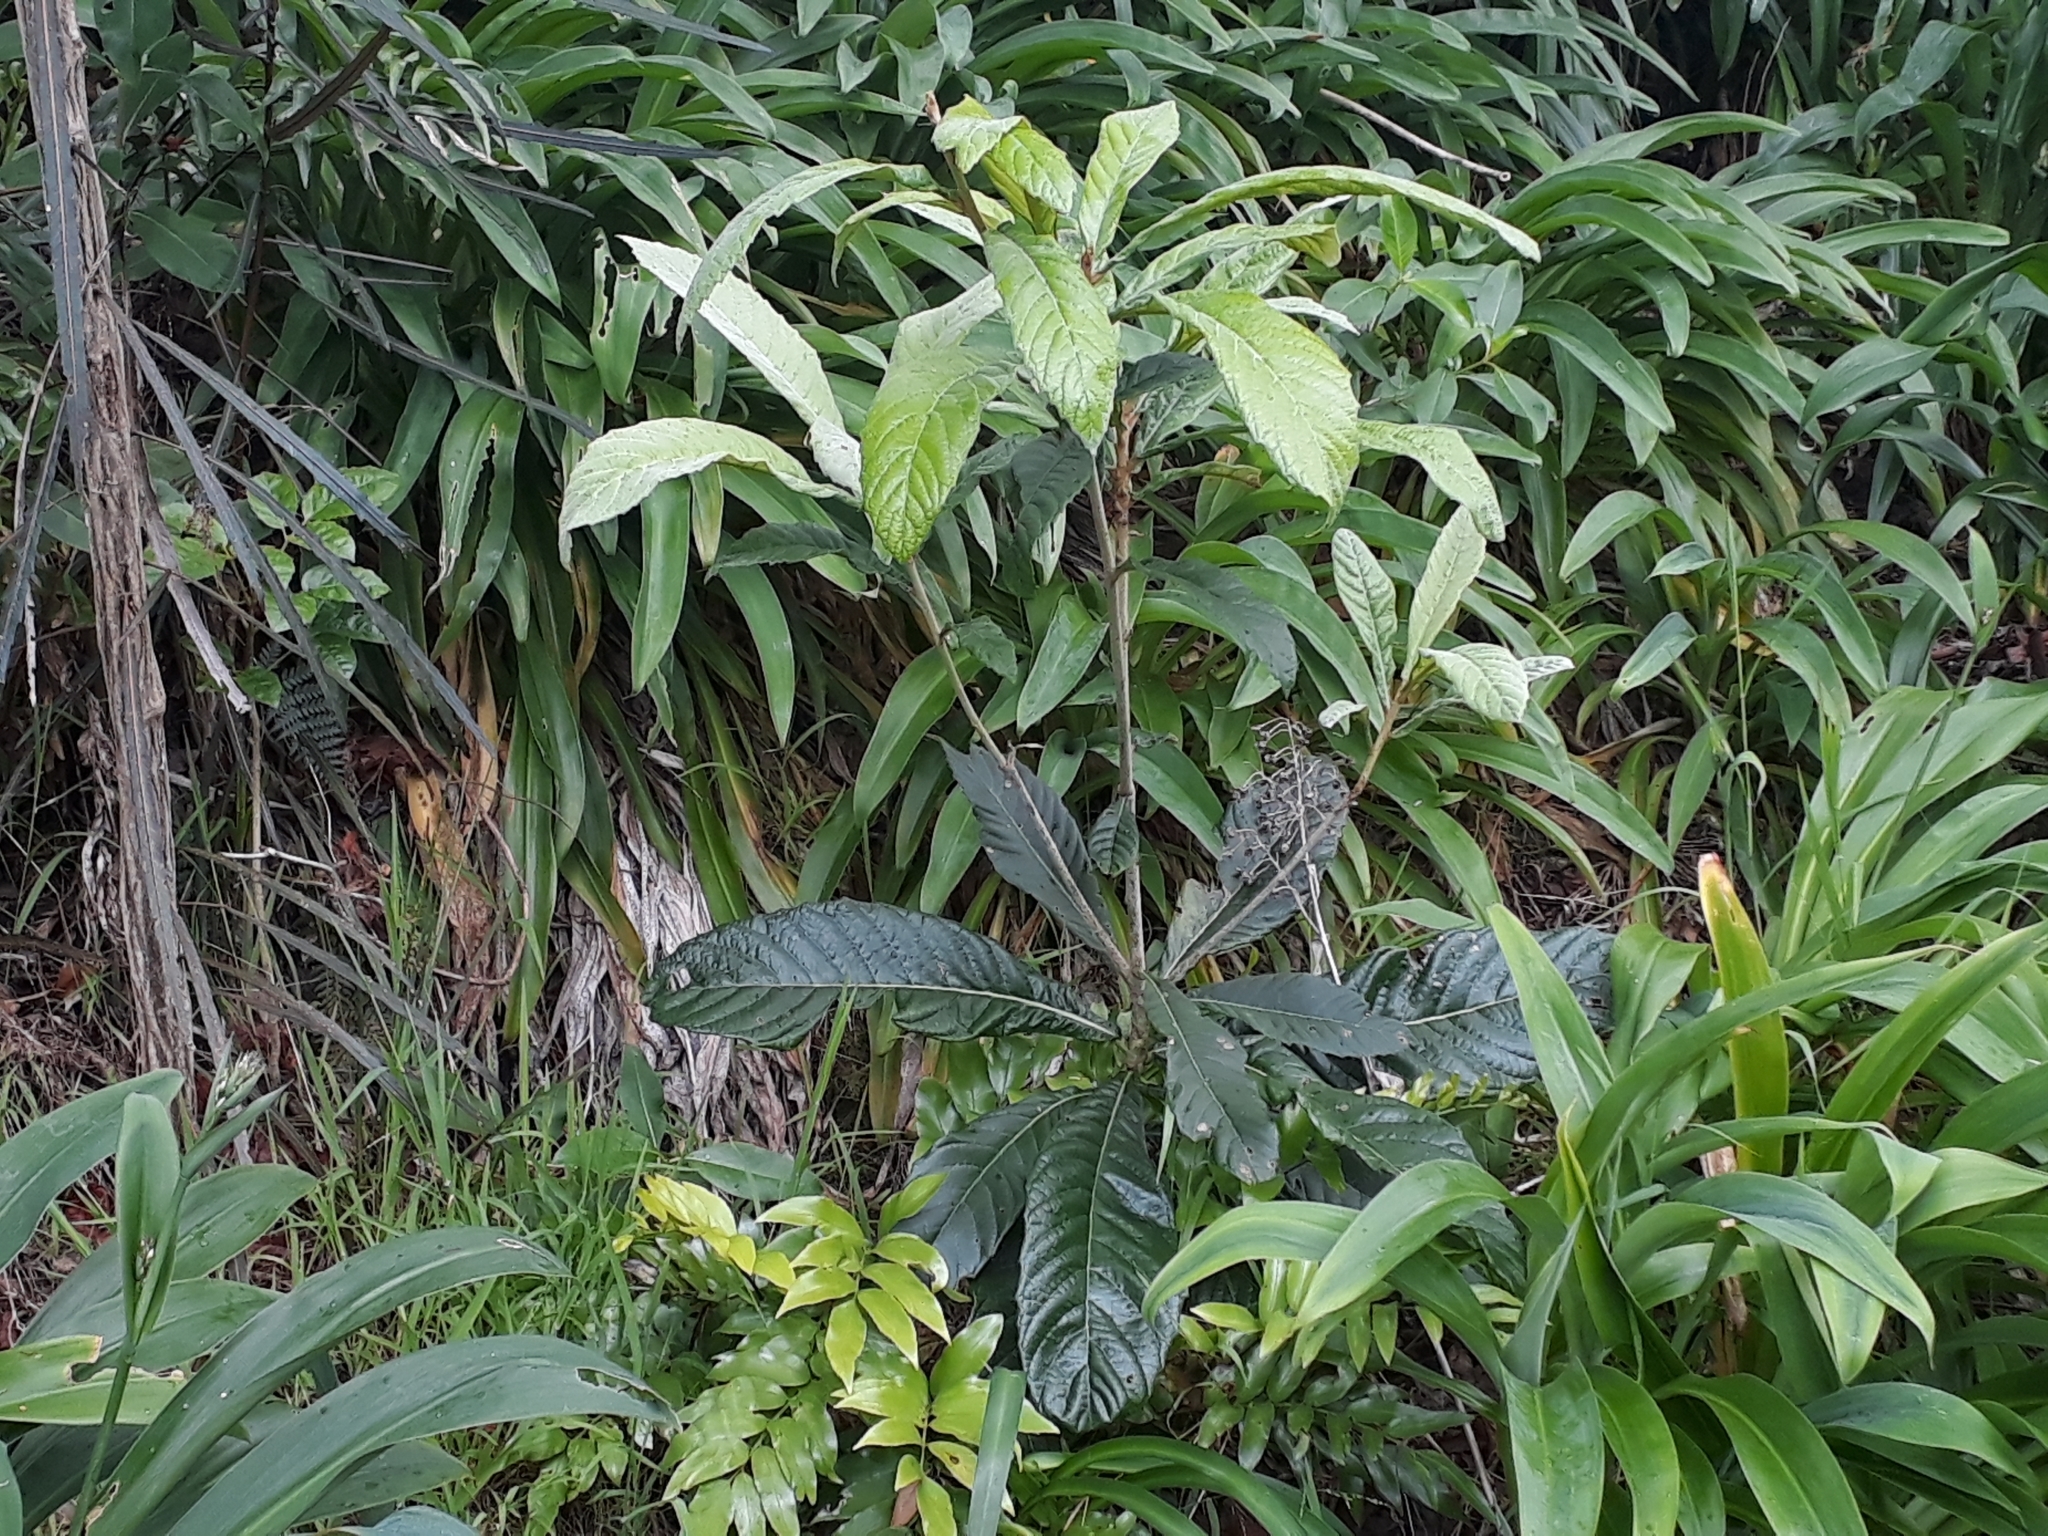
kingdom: Plantae
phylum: Tracheophyta
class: Magnoliopsida
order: Rosales
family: Rosaceae
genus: Rhaphiolepis
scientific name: Rhaphiolepis bibas
